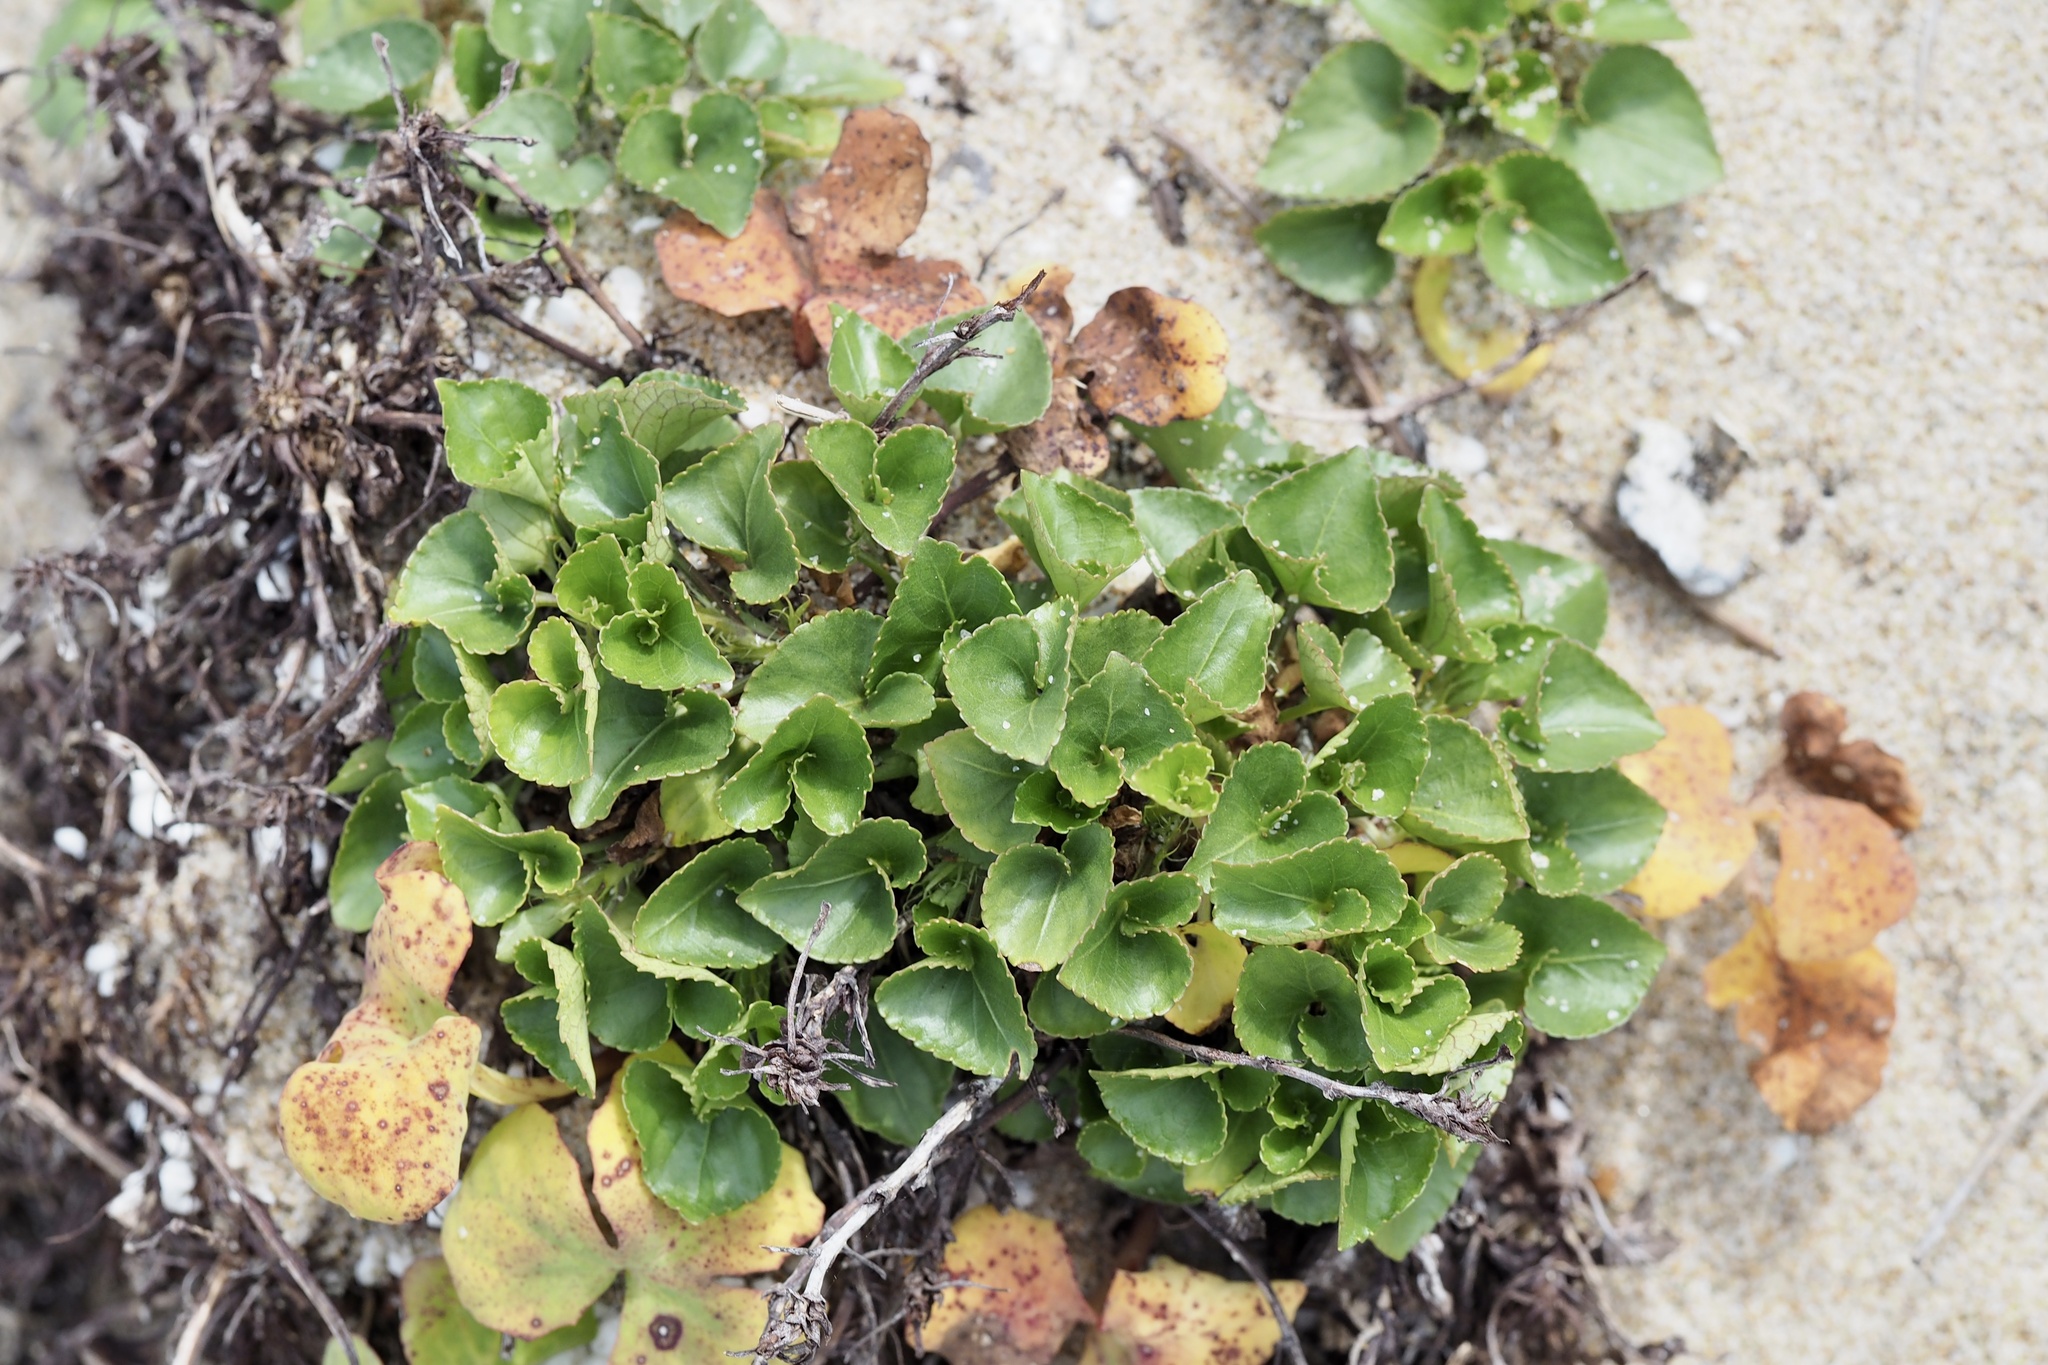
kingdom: Plantae
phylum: Tracheophyta
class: Magnoliopsida
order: Malpighiales
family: Violaceae
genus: Viola
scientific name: Viola grayi
